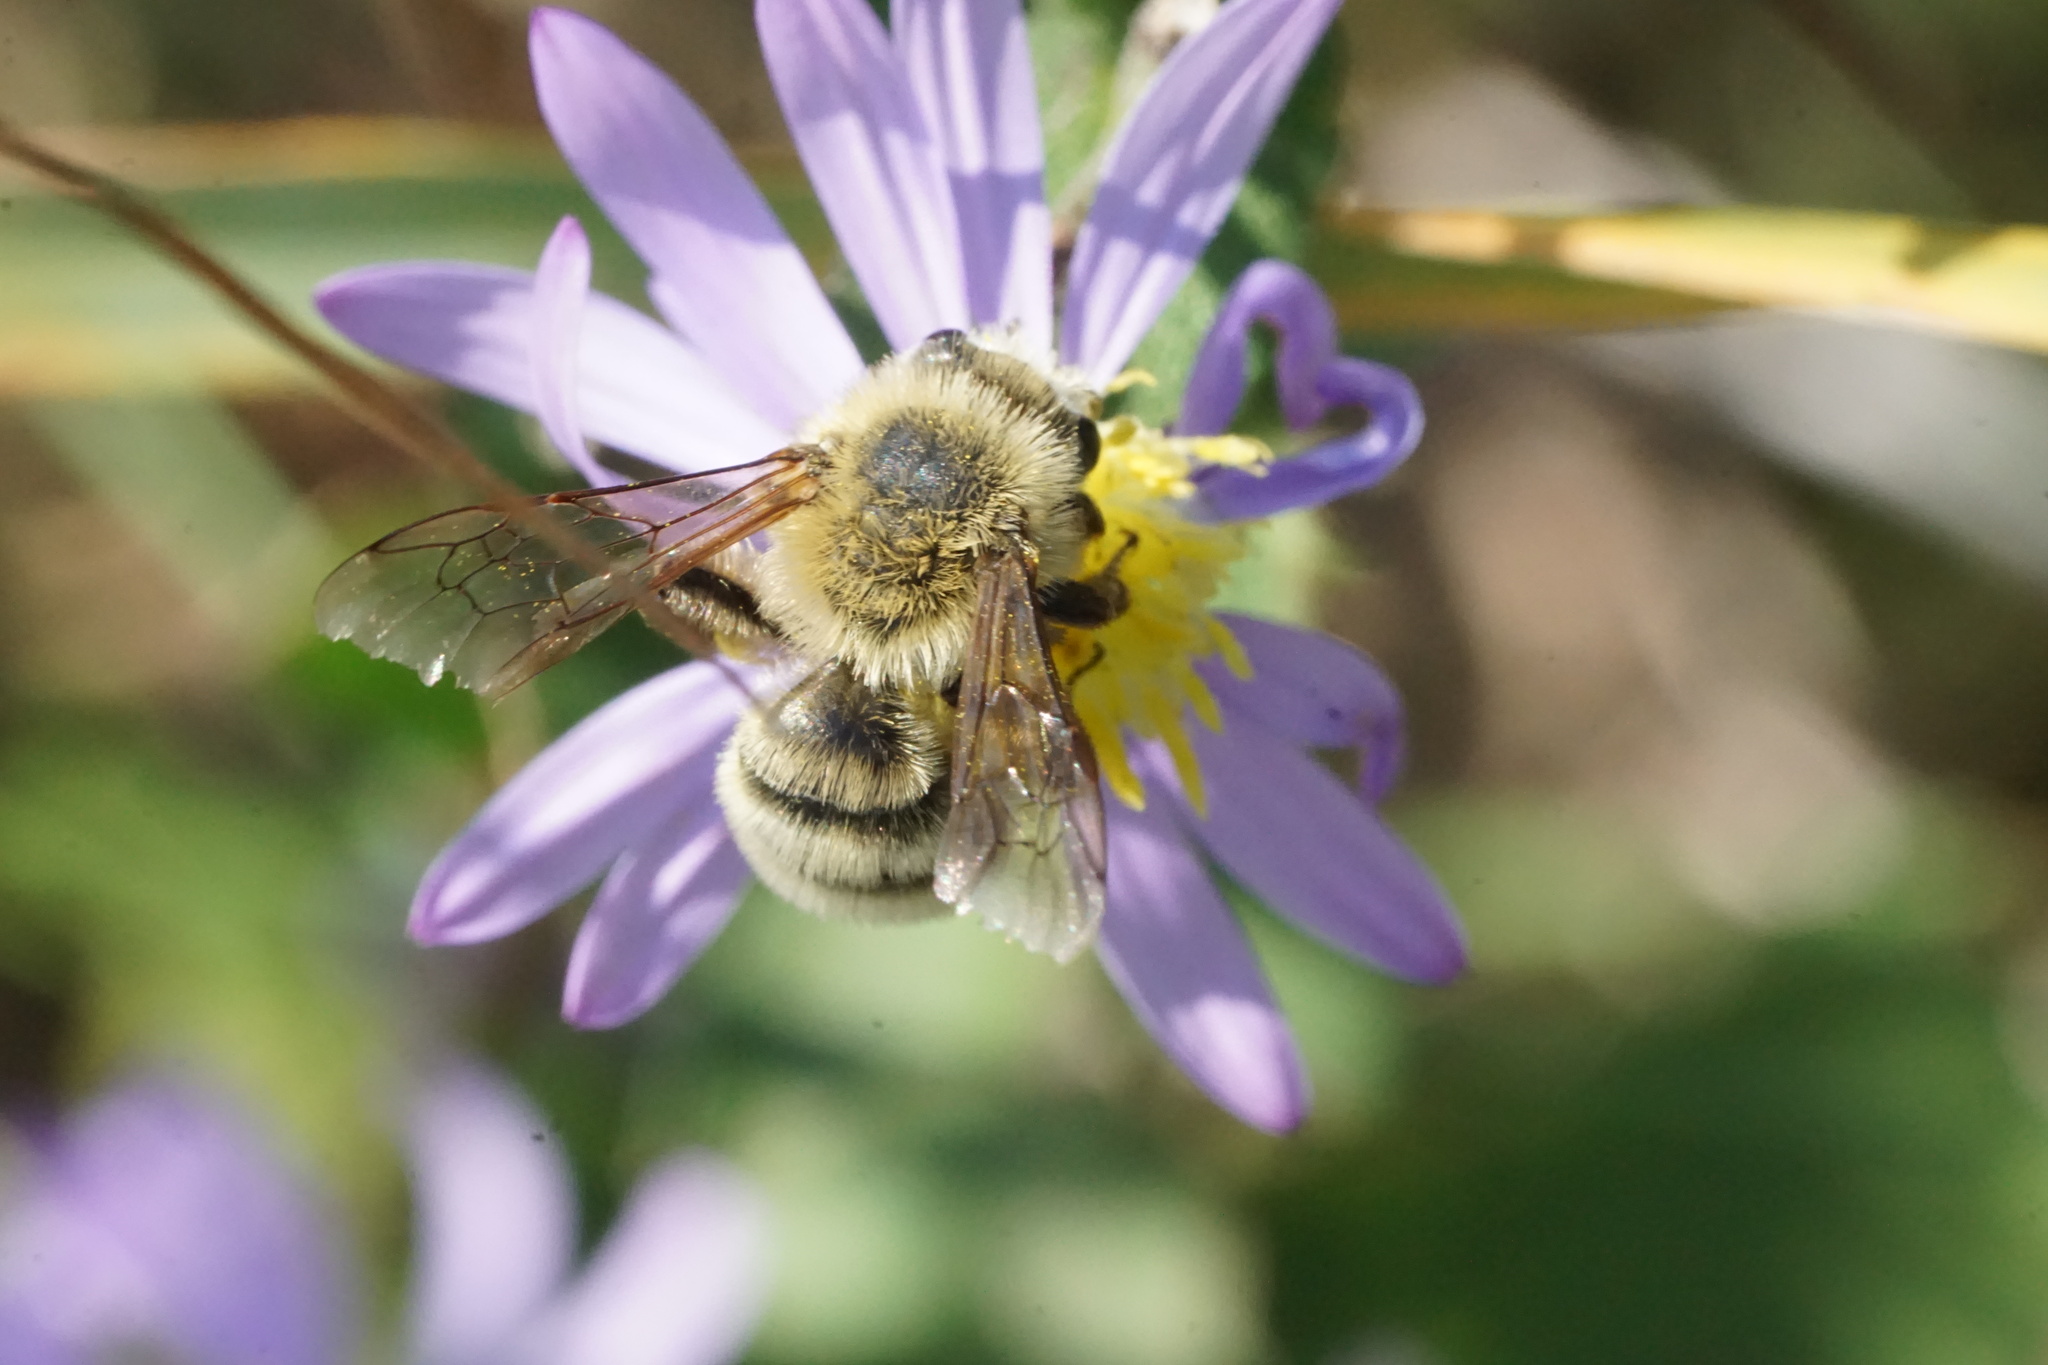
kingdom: Animalia
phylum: Arthropoda
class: Insecta
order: Hymenoptera
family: Andrenidae
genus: Andrena
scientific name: Andrena hirticincta
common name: Hairy-banded mining bee
